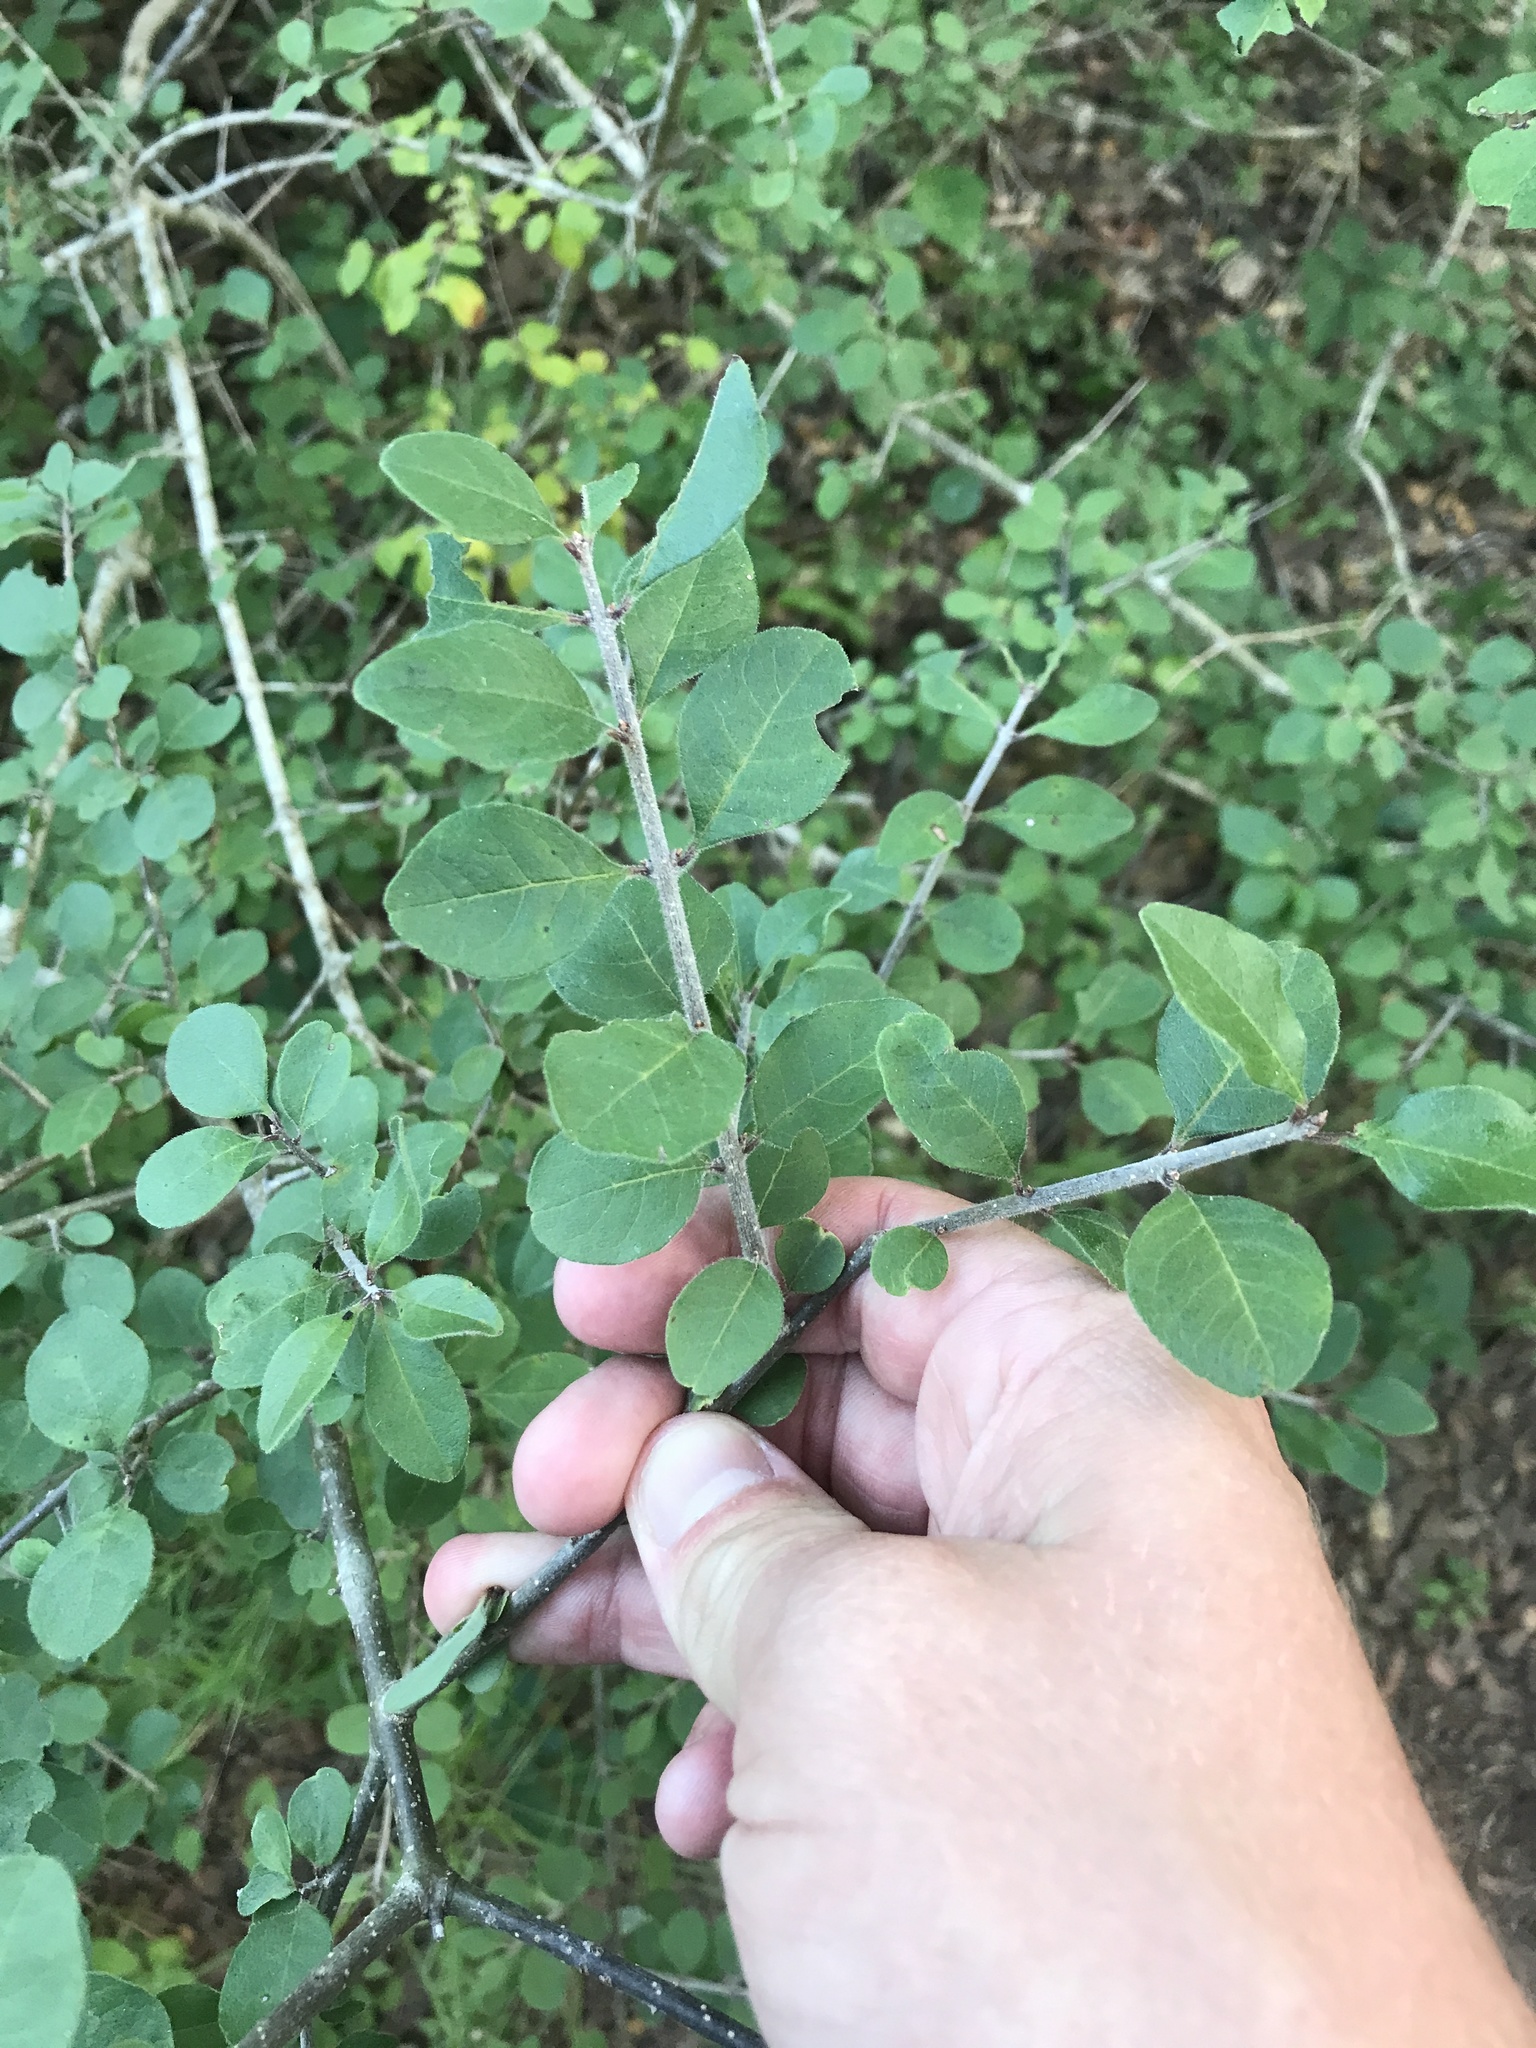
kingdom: Plantae
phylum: Tracheophyta
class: Magnoliopsida
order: Lamiales
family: Oleaceae
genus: Forestiera
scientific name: Forestiera pubescens
